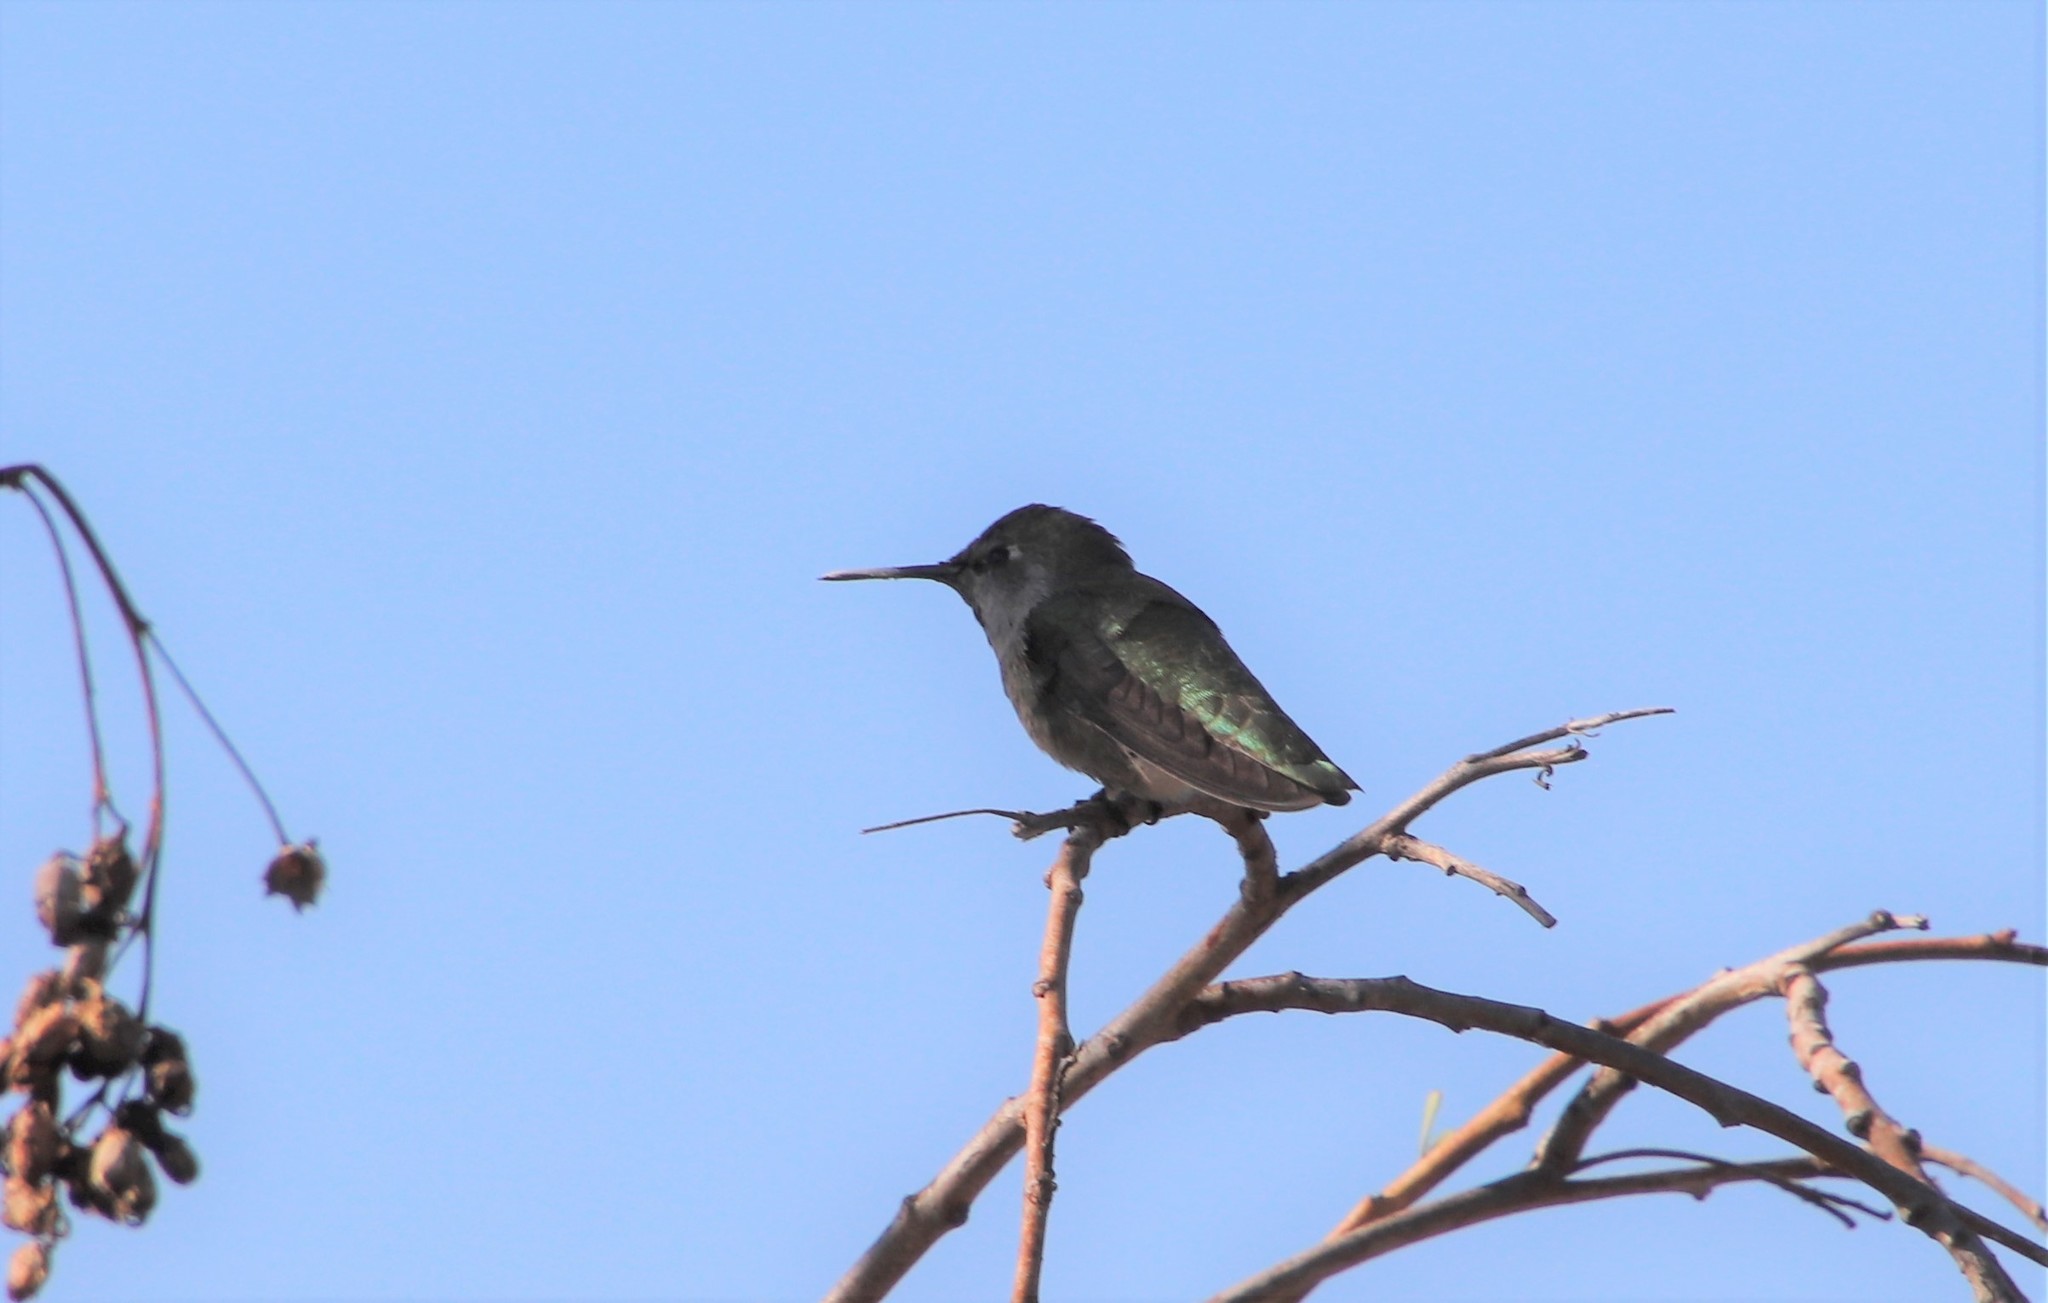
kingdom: Animalia
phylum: Chordata
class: Aves
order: Apodiformes
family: Trochilidae
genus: Calypte
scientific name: Calypte anna
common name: Anna's hummingbird
